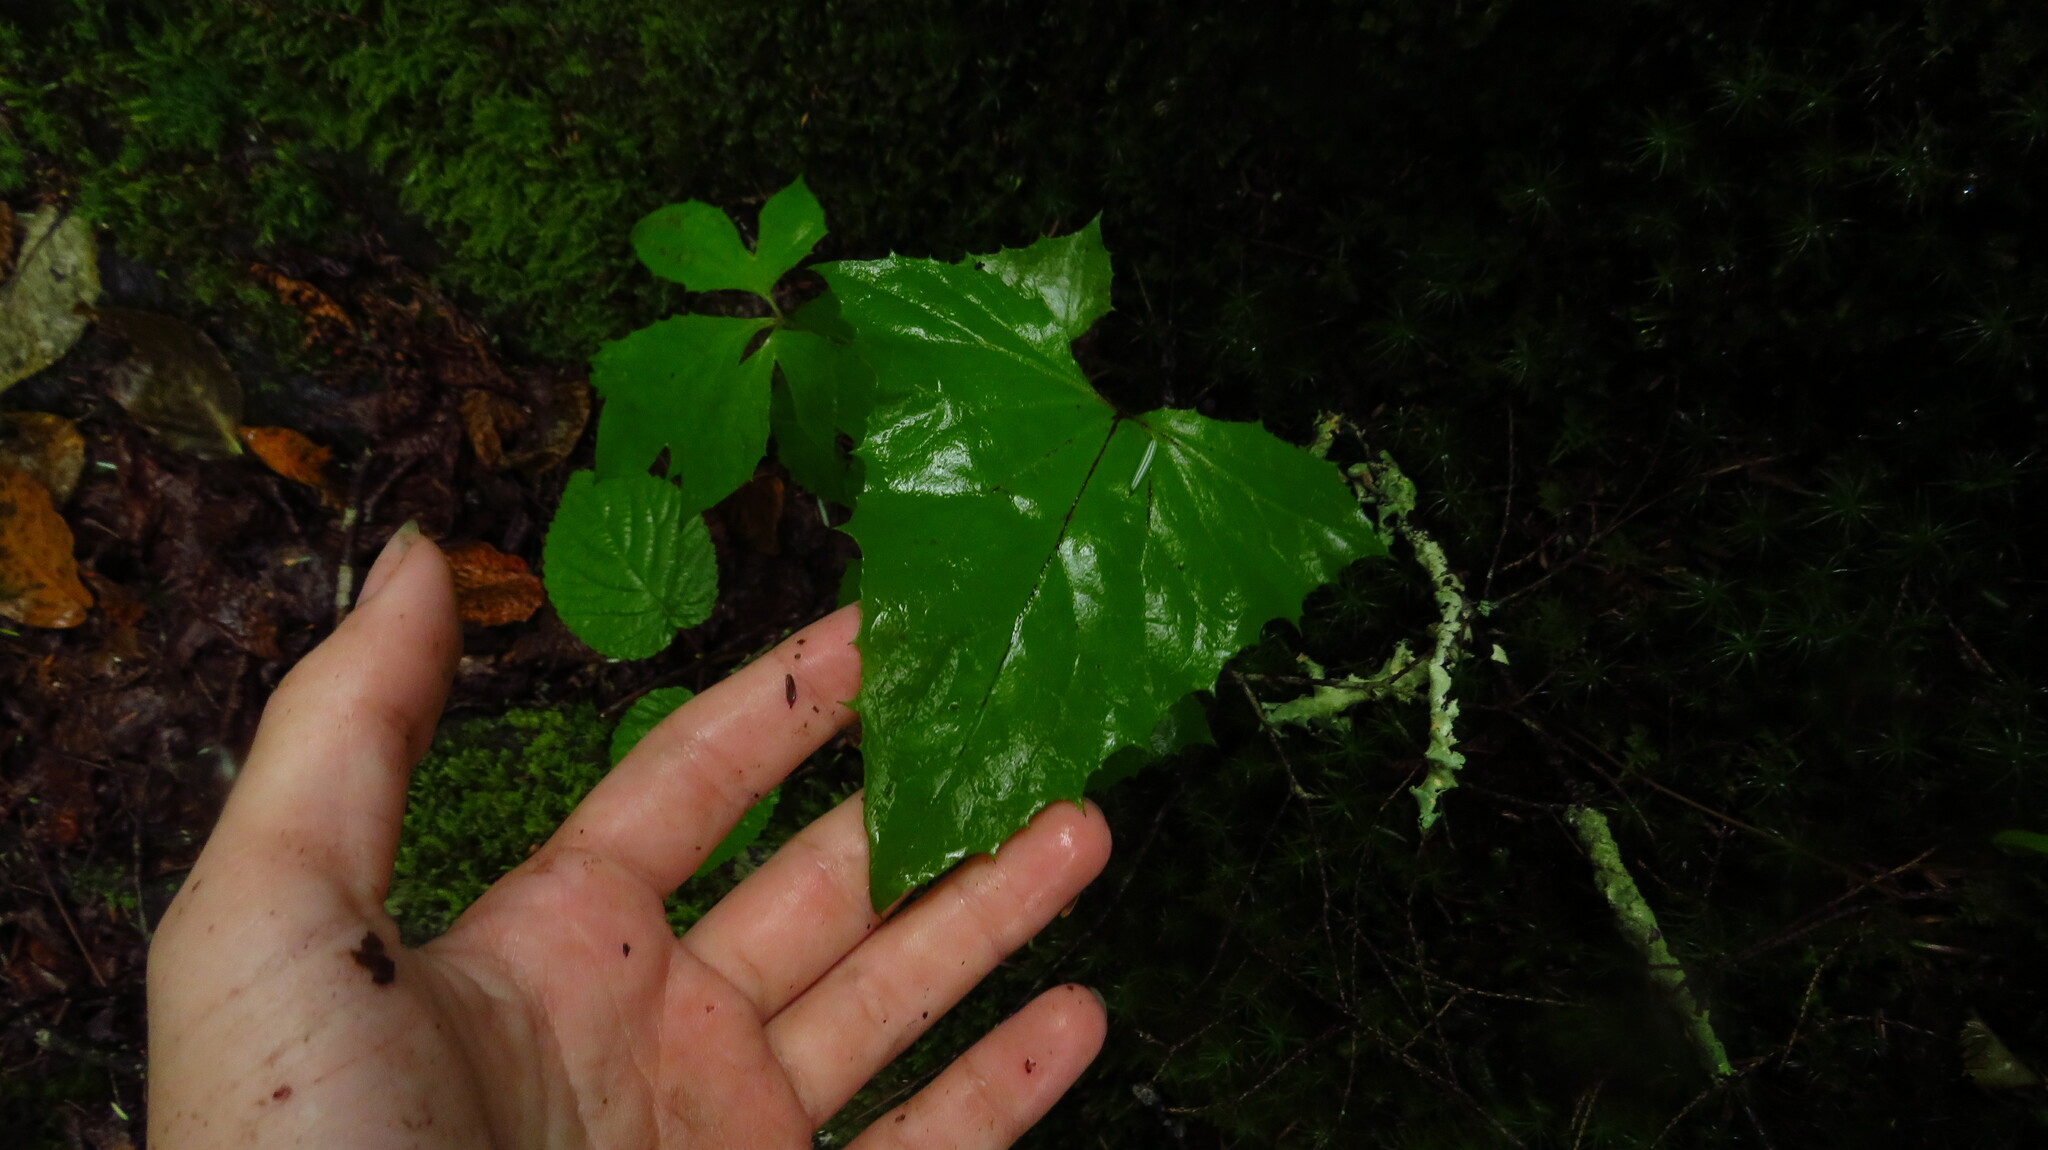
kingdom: Plantae
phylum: Tracheophyta
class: Magnoliopsida
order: Asterales
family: Asteraceae
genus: Nabalus
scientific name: Nabalus altissima
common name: Tall rattlesnakeroot
